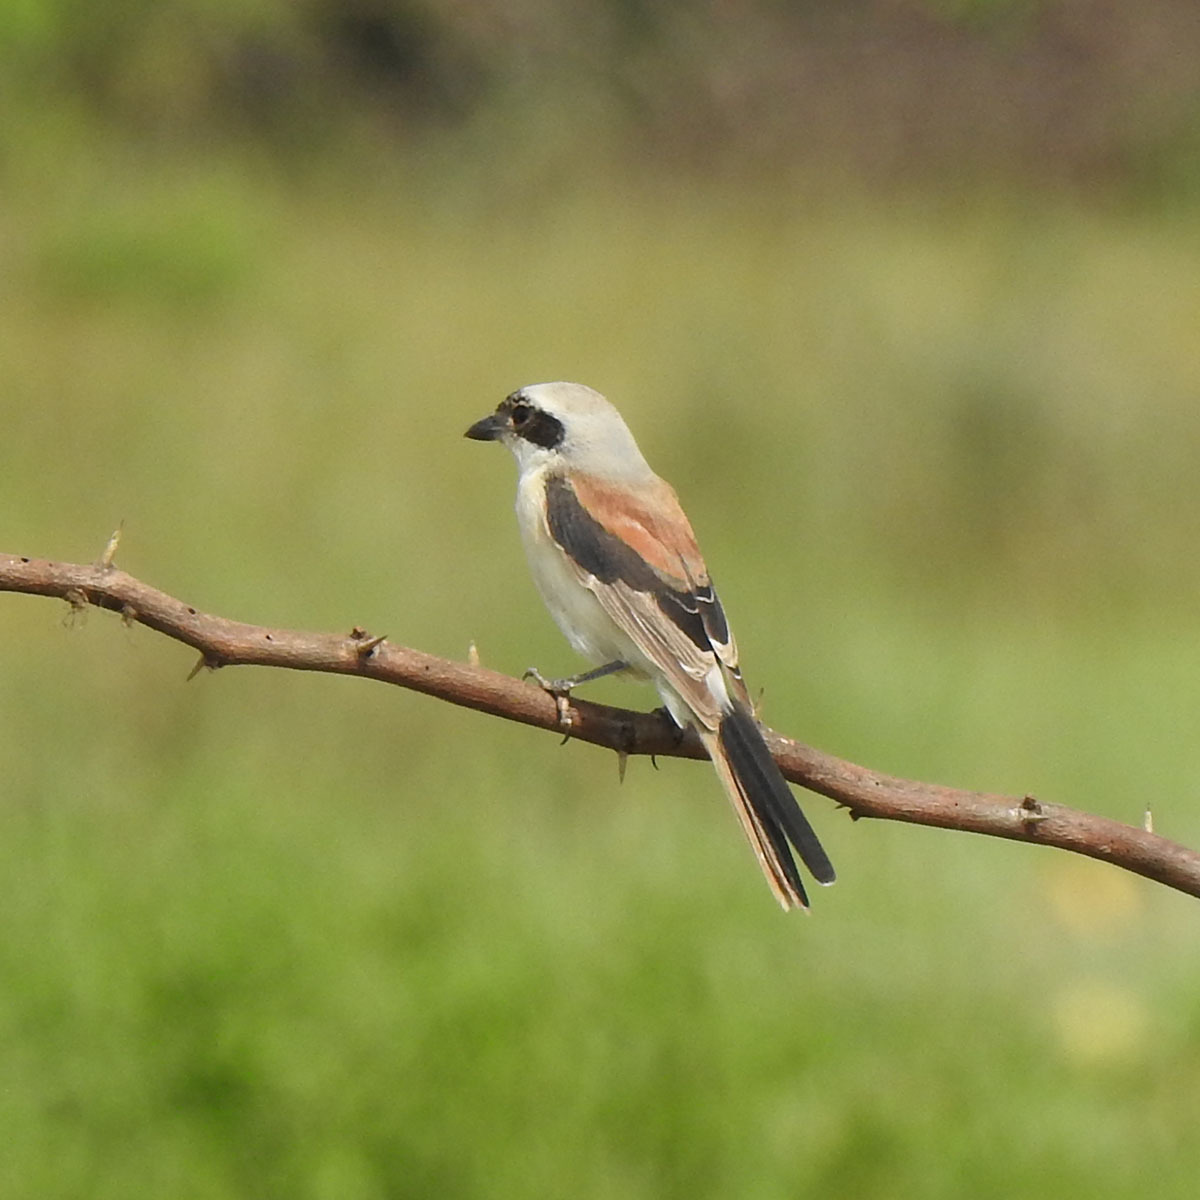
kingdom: Animalia
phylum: Chordata
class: Aves
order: Passeriformes
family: Laniidae
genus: Lanius
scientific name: Lanius schach
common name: Long-tailed shrike
